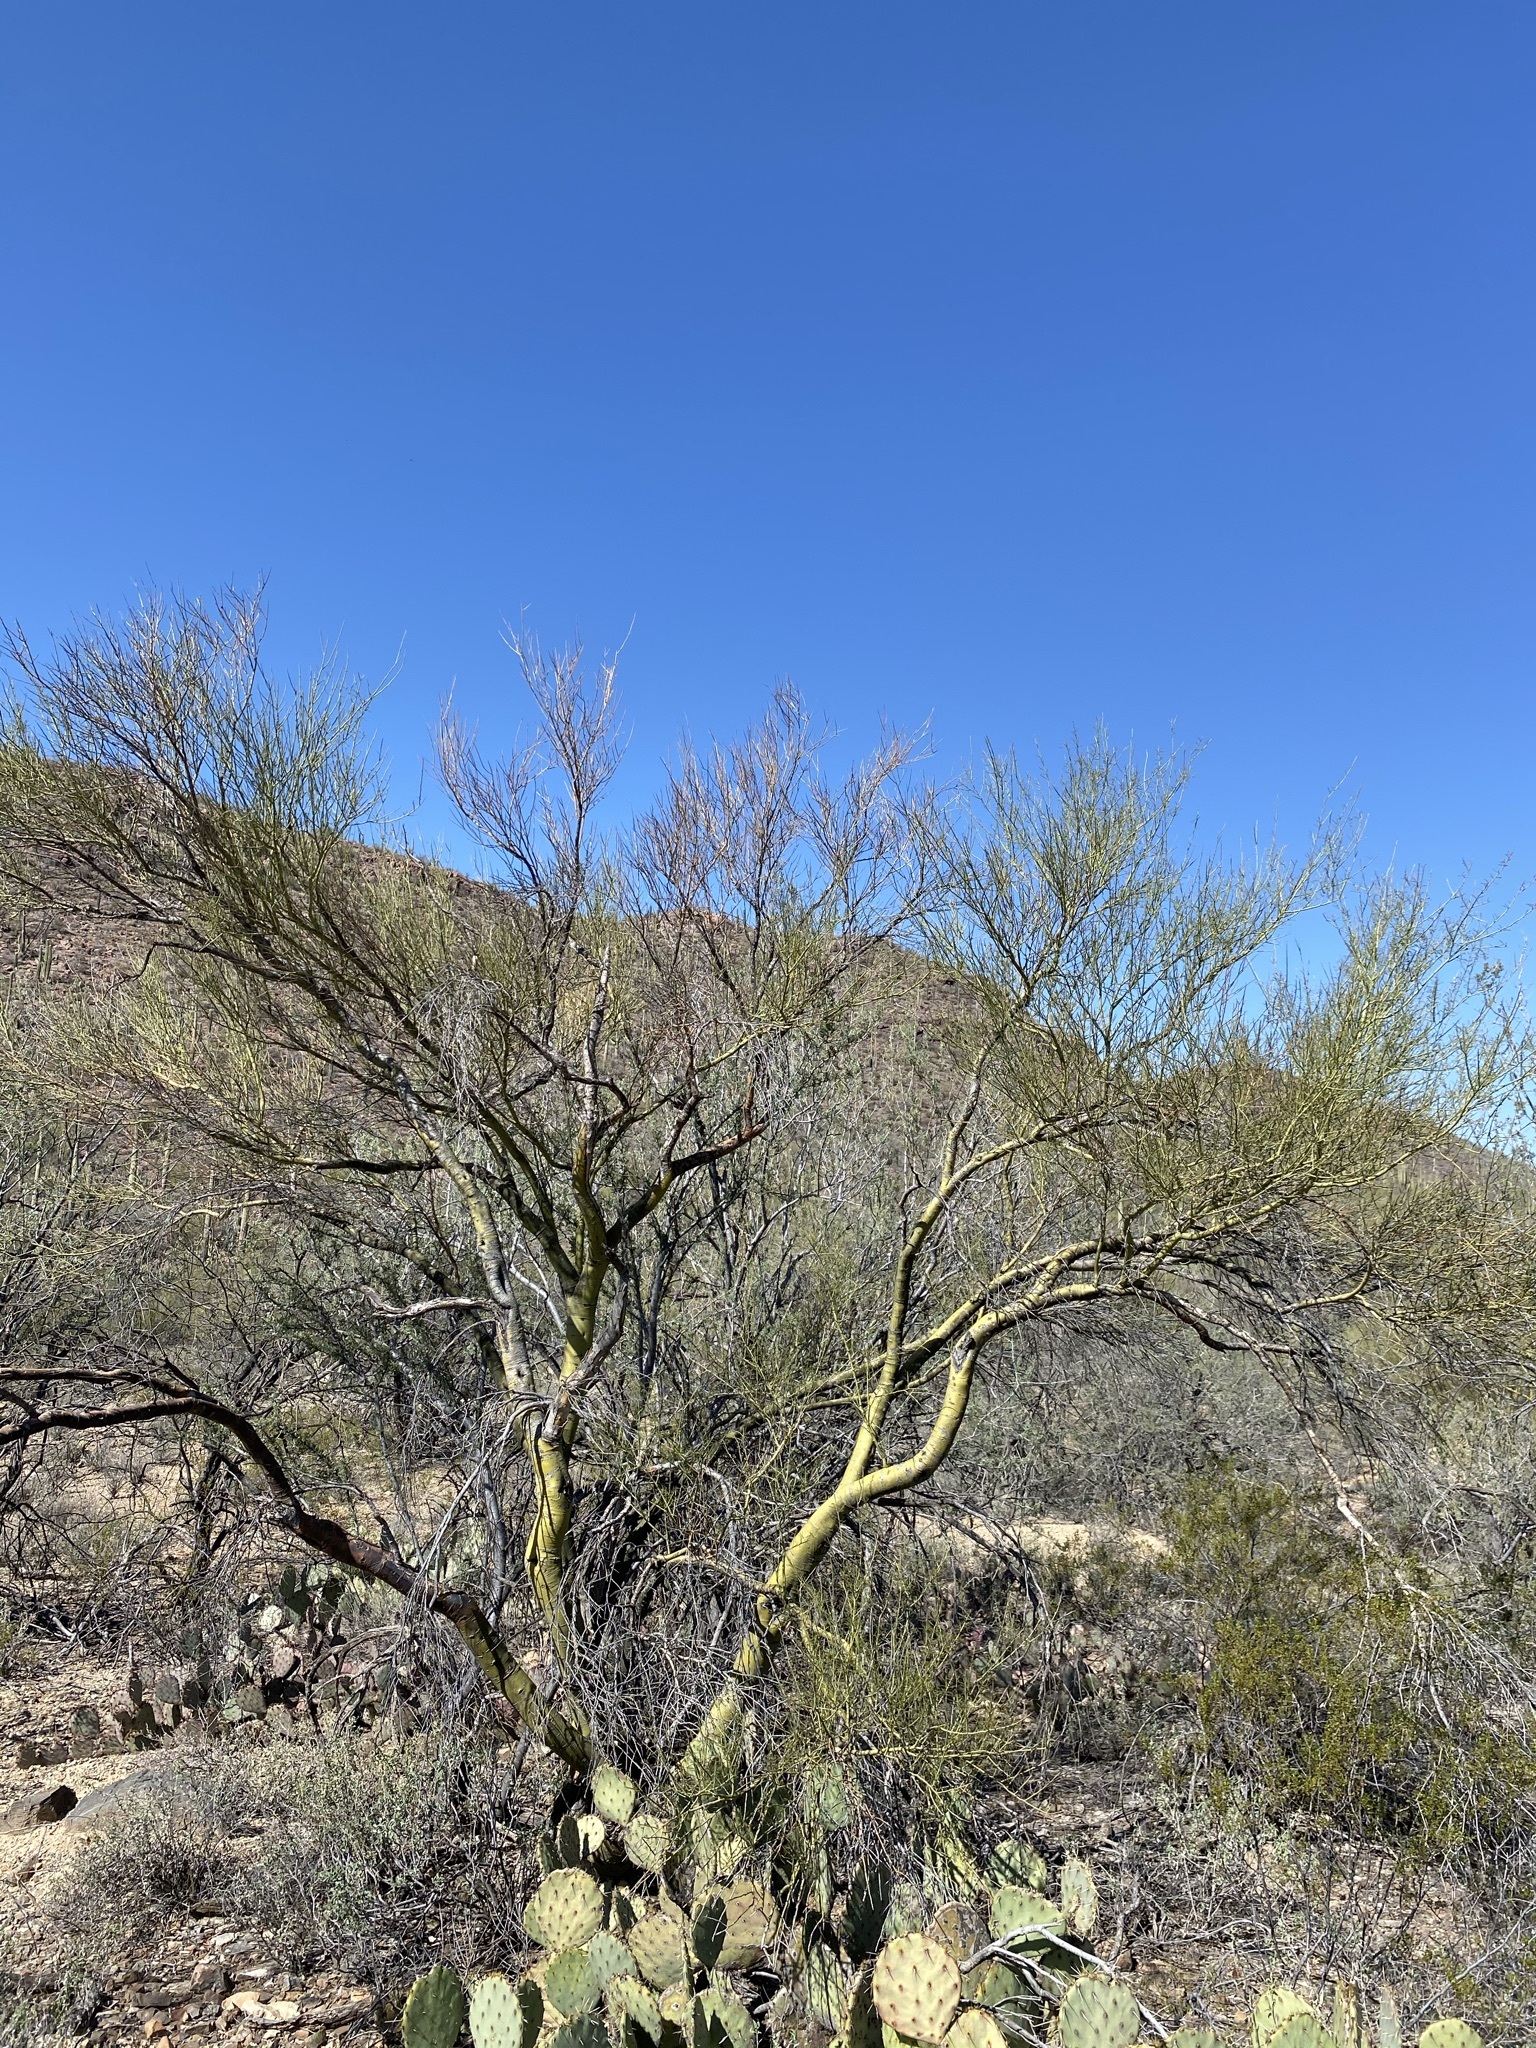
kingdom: Plantae
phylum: Tracheophyta
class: Magnoliopsida
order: Fabales
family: Fabaceae
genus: Parkinsonia
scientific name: Parkinsonia microphylla
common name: Yellow paloverde
